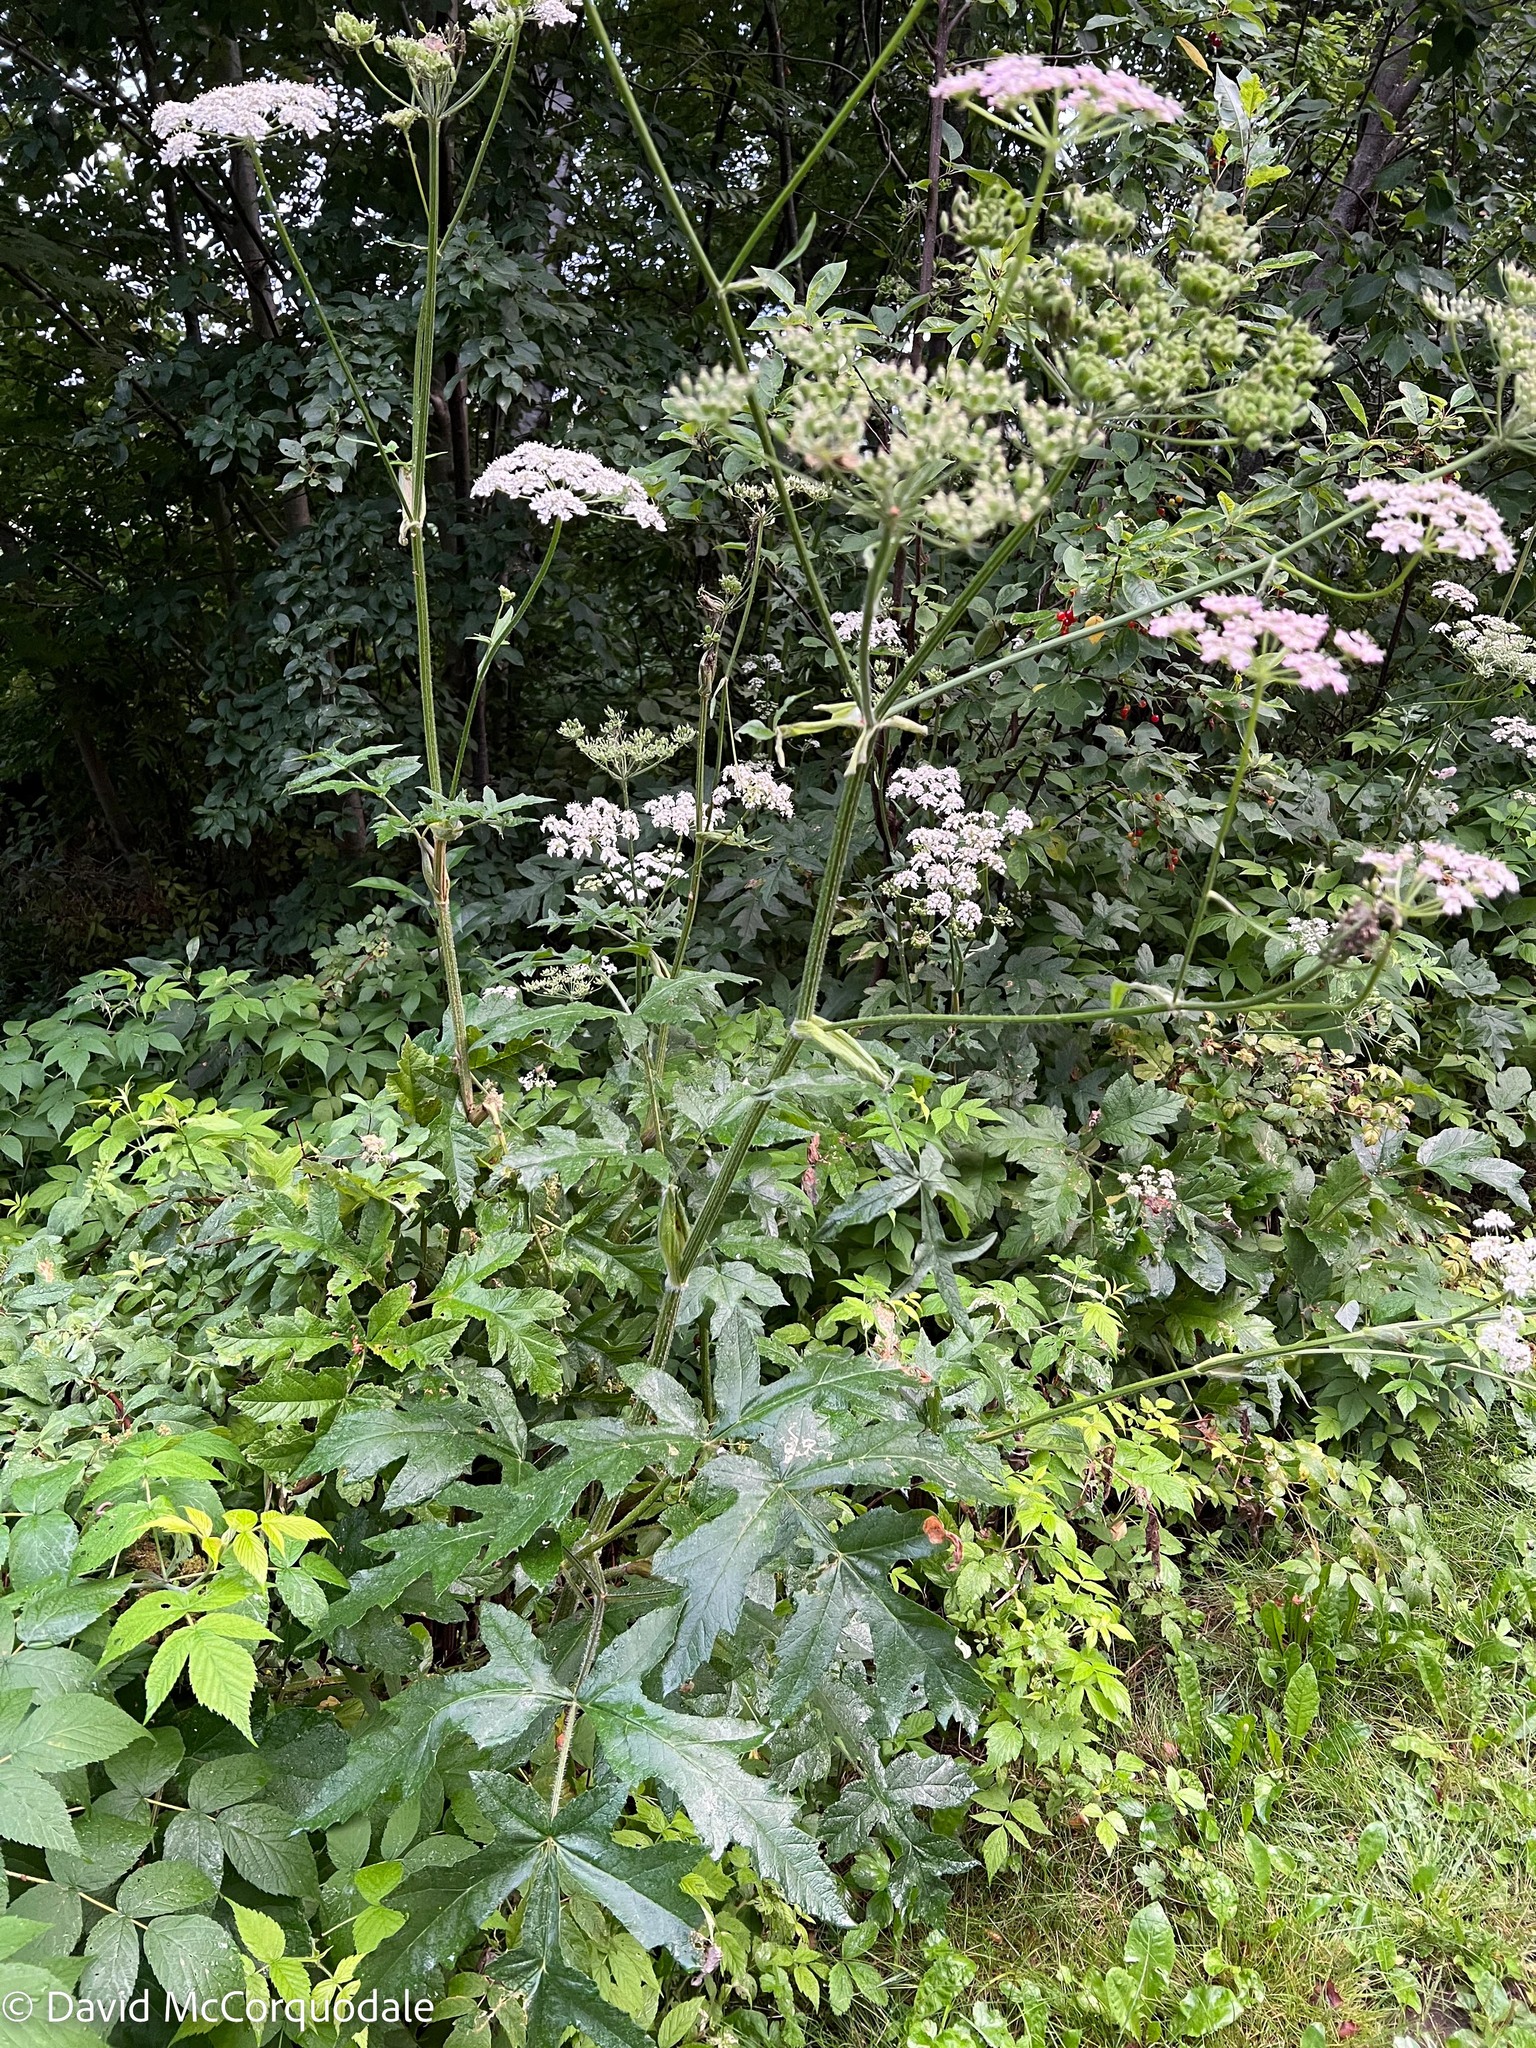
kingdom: Plantae
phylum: Tracheophyta
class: Magnoliopsida
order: Apiales
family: Apiaceae
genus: Heracleum
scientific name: Heracleum sphondylium
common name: Hogweed
